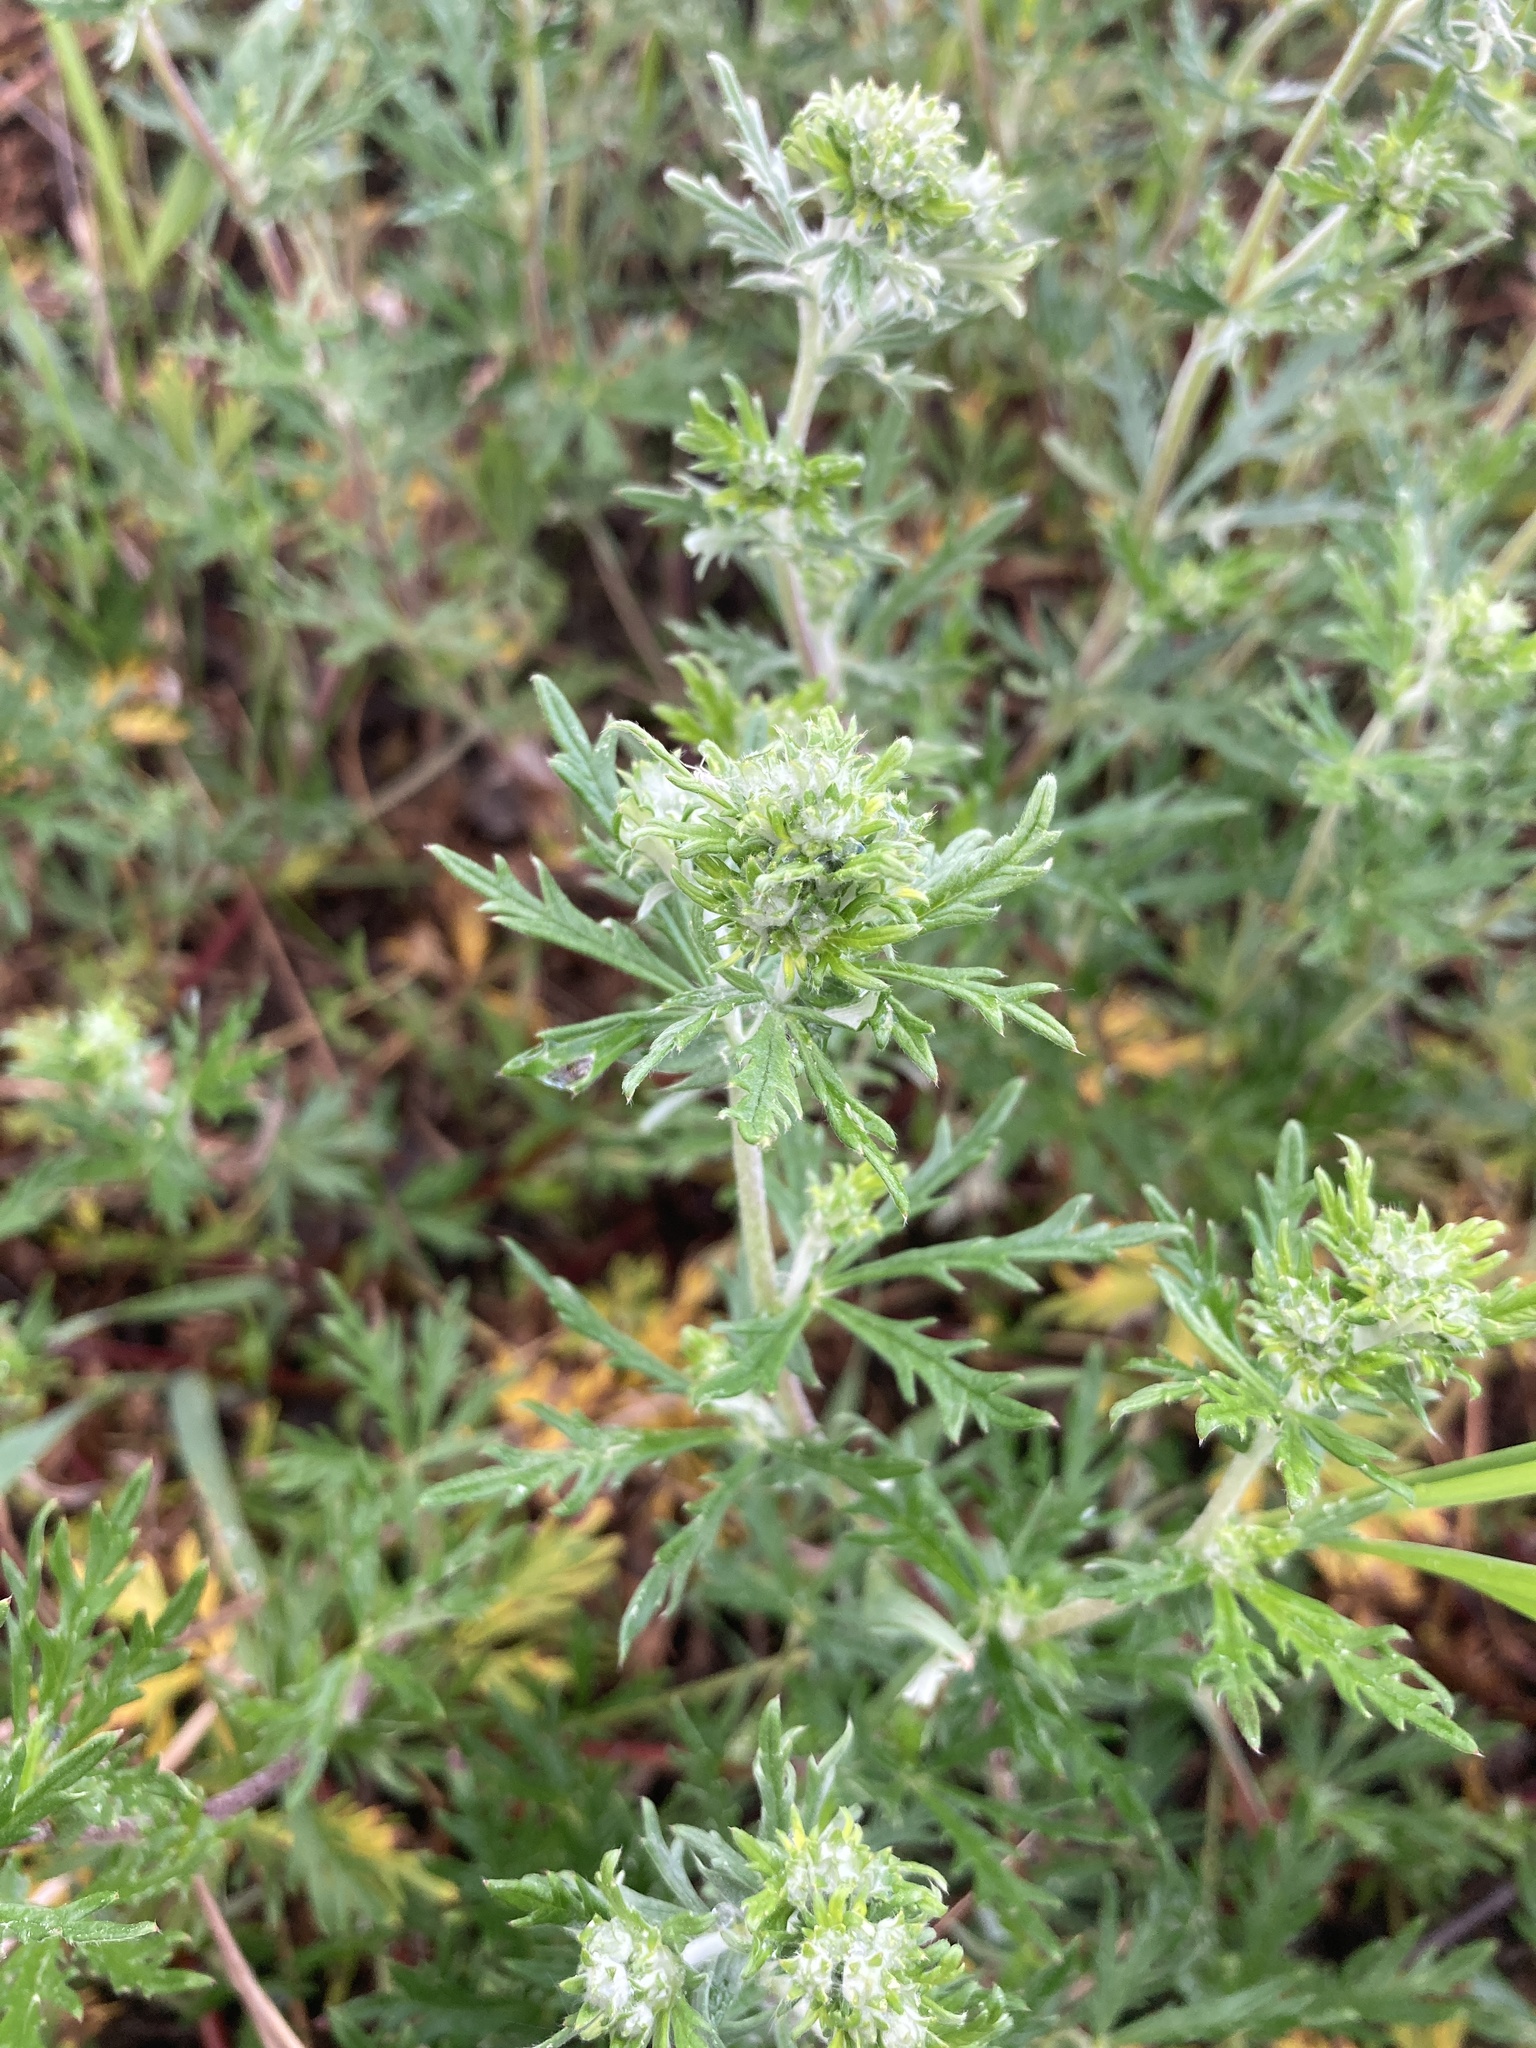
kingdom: Plantae
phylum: Tracheophyta
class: Magnoliopsida
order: Rosales
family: Rosaceae
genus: Potentilla
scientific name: Potentilla argentea
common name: Hoary cinquefoil
